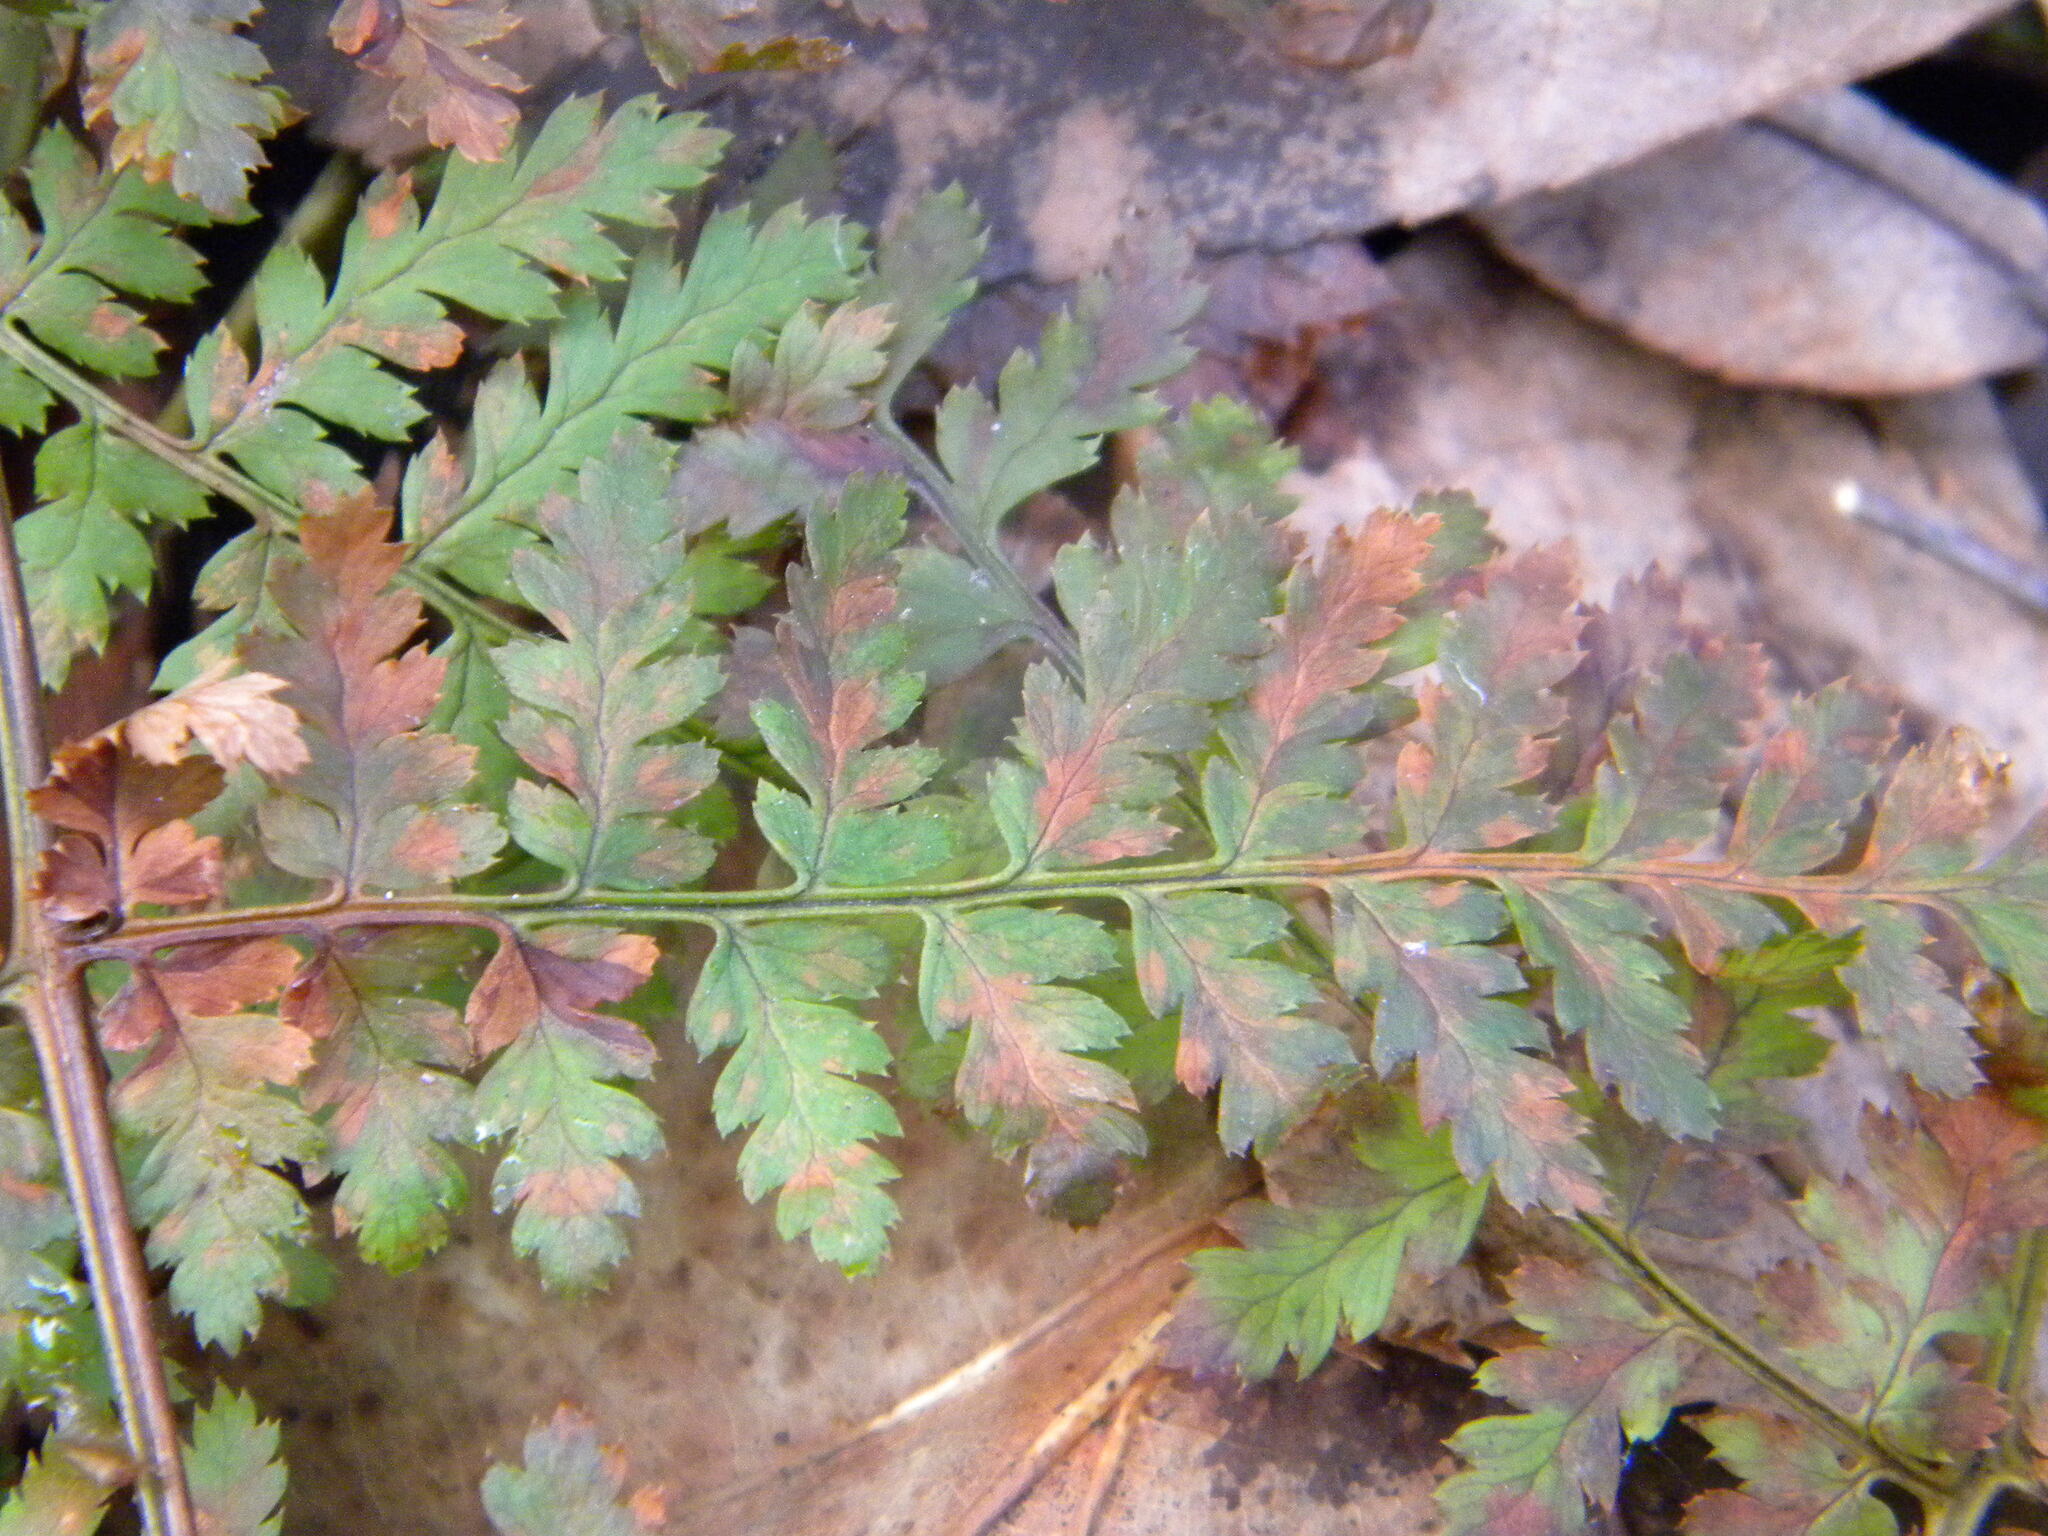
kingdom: Plantae
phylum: Tracheophyta
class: Polypodiopsida
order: Polypodiales
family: Dryopteridaceae
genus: Dryopteris
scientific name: Dryopteris intermedia
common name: Evergreen wood fern
